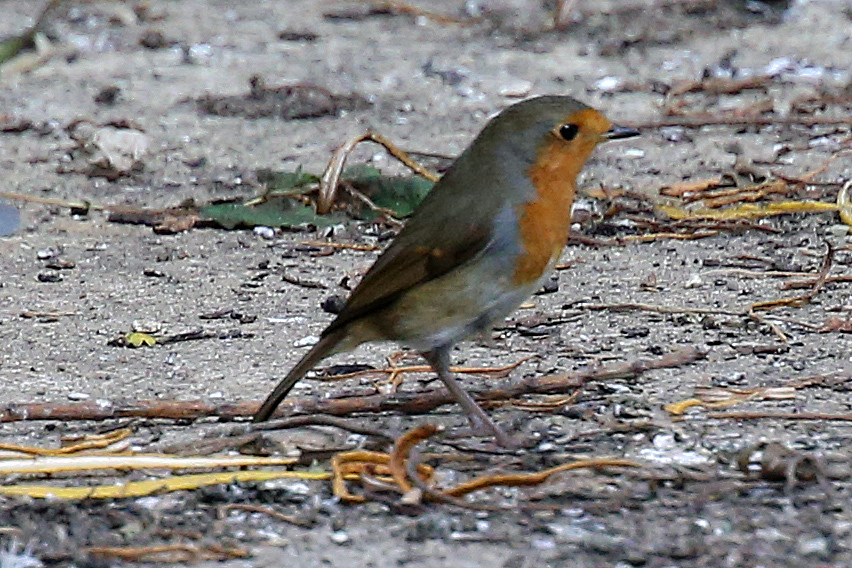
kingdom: Animalia
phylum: Chordata
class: Aves
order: Passeriformes
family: Muscicapidae
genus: Erithacus
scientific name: Erithacus rubecula
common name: European robin
